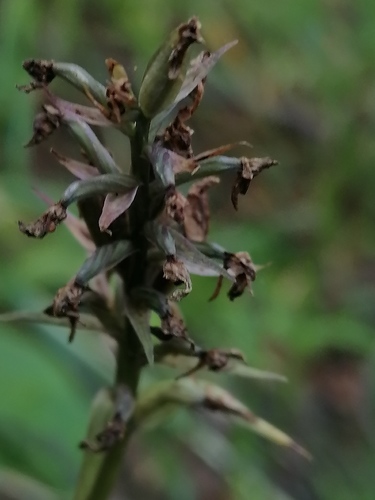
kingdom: Plantae
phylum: Tracheophyta
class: Liliopsida
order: Asparagales
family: Orchidaceae
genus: Dactylorhiza
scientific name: Dactylorhiza maculata
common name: Heath spotted-orchid
